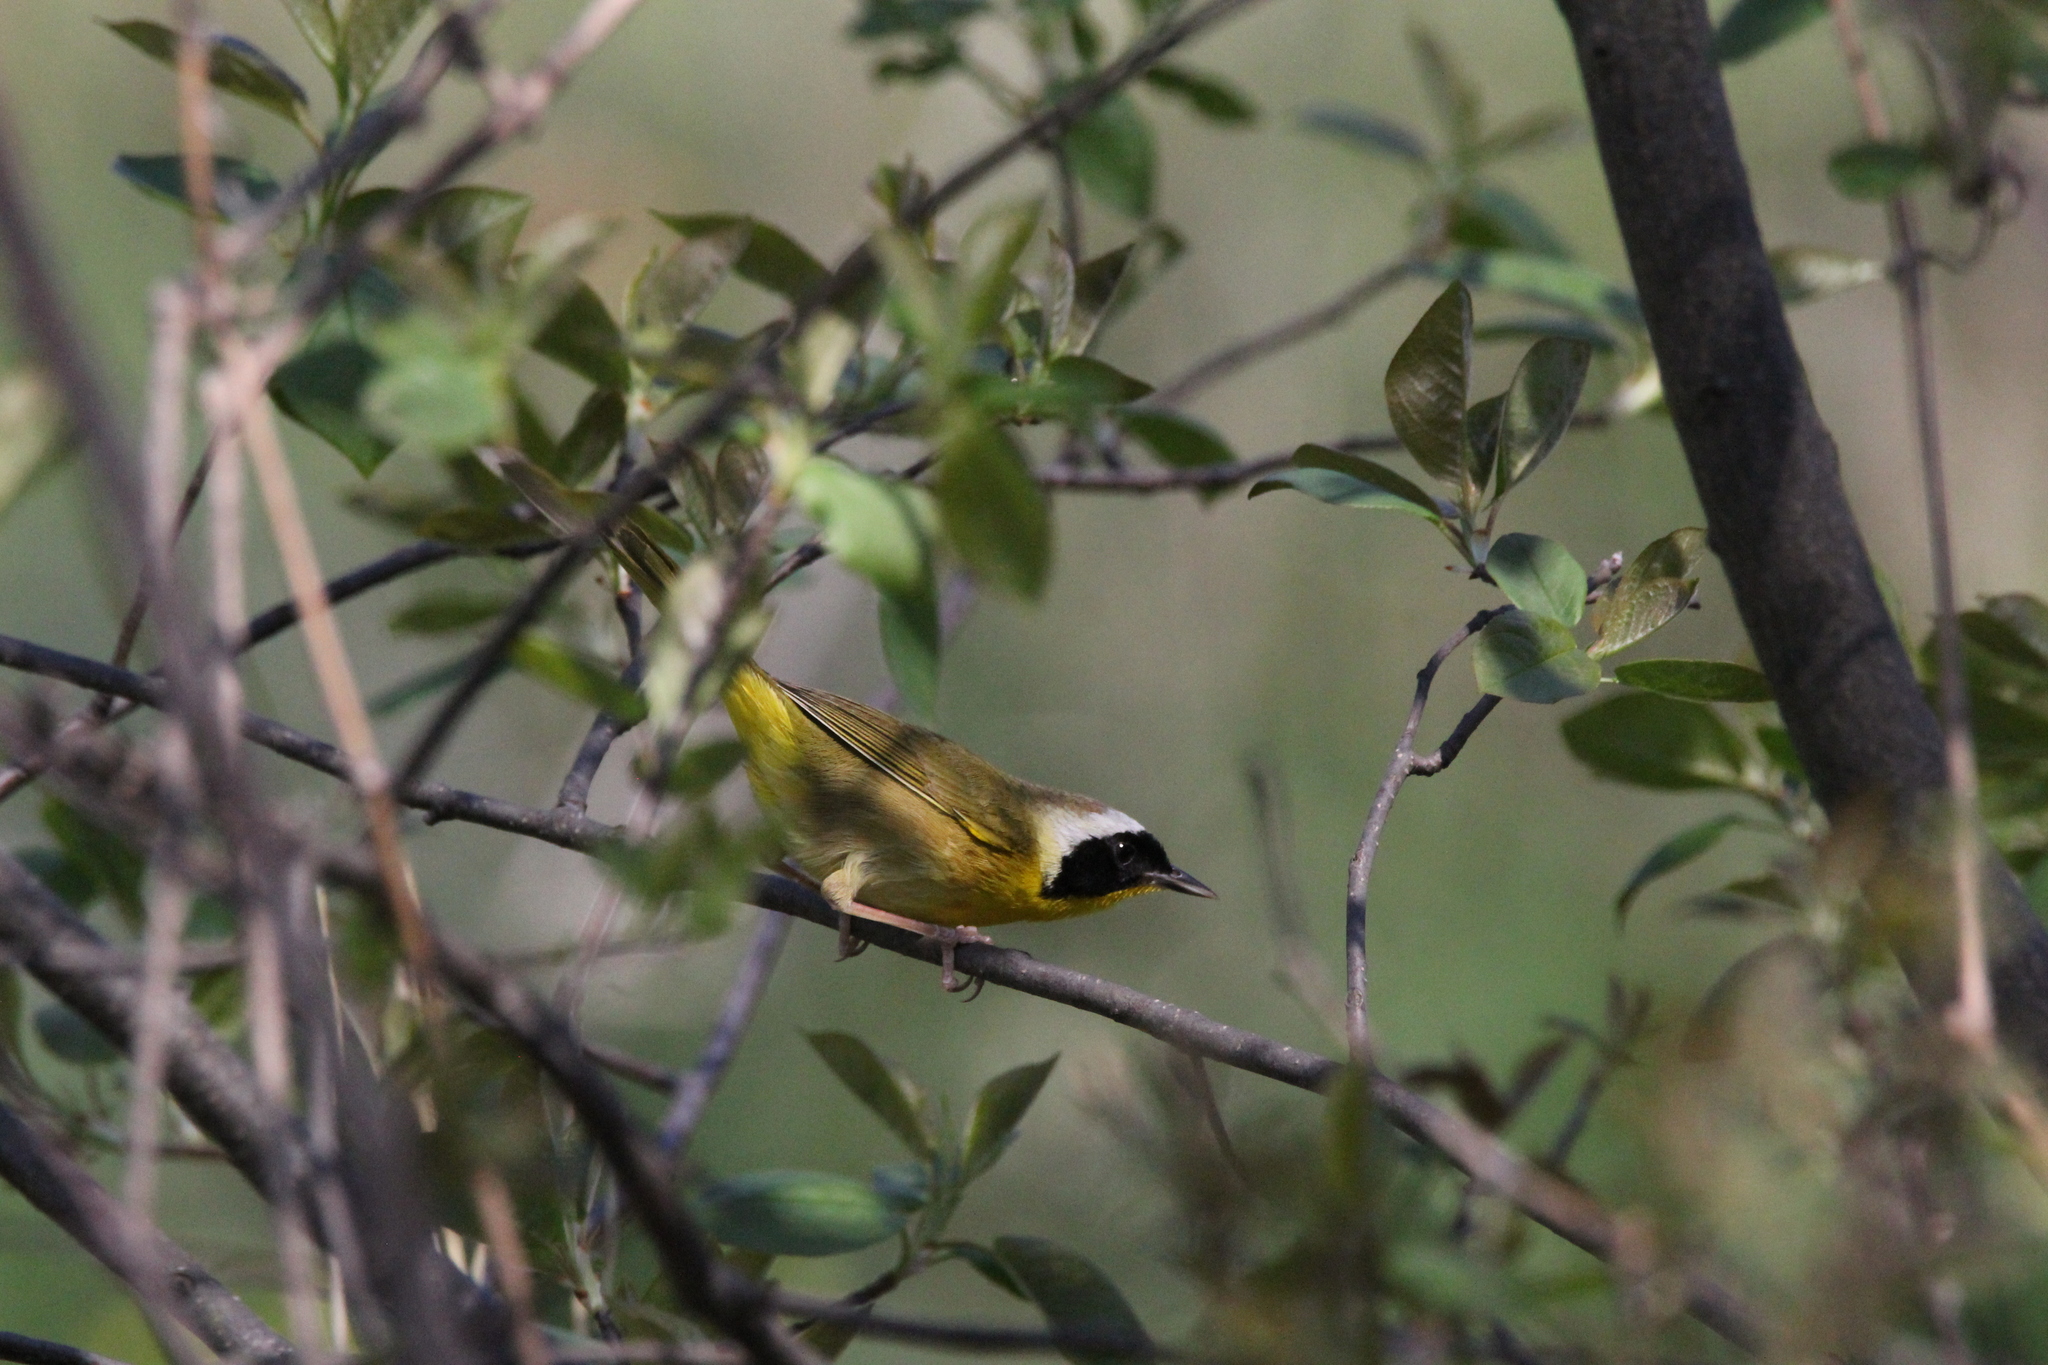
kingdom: Animalia
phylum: Chordata
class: Aves
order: Passeriformes
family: Parulidae
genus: Geothlypis
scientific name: Geothlypis trichas
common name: Common yellowthroat
